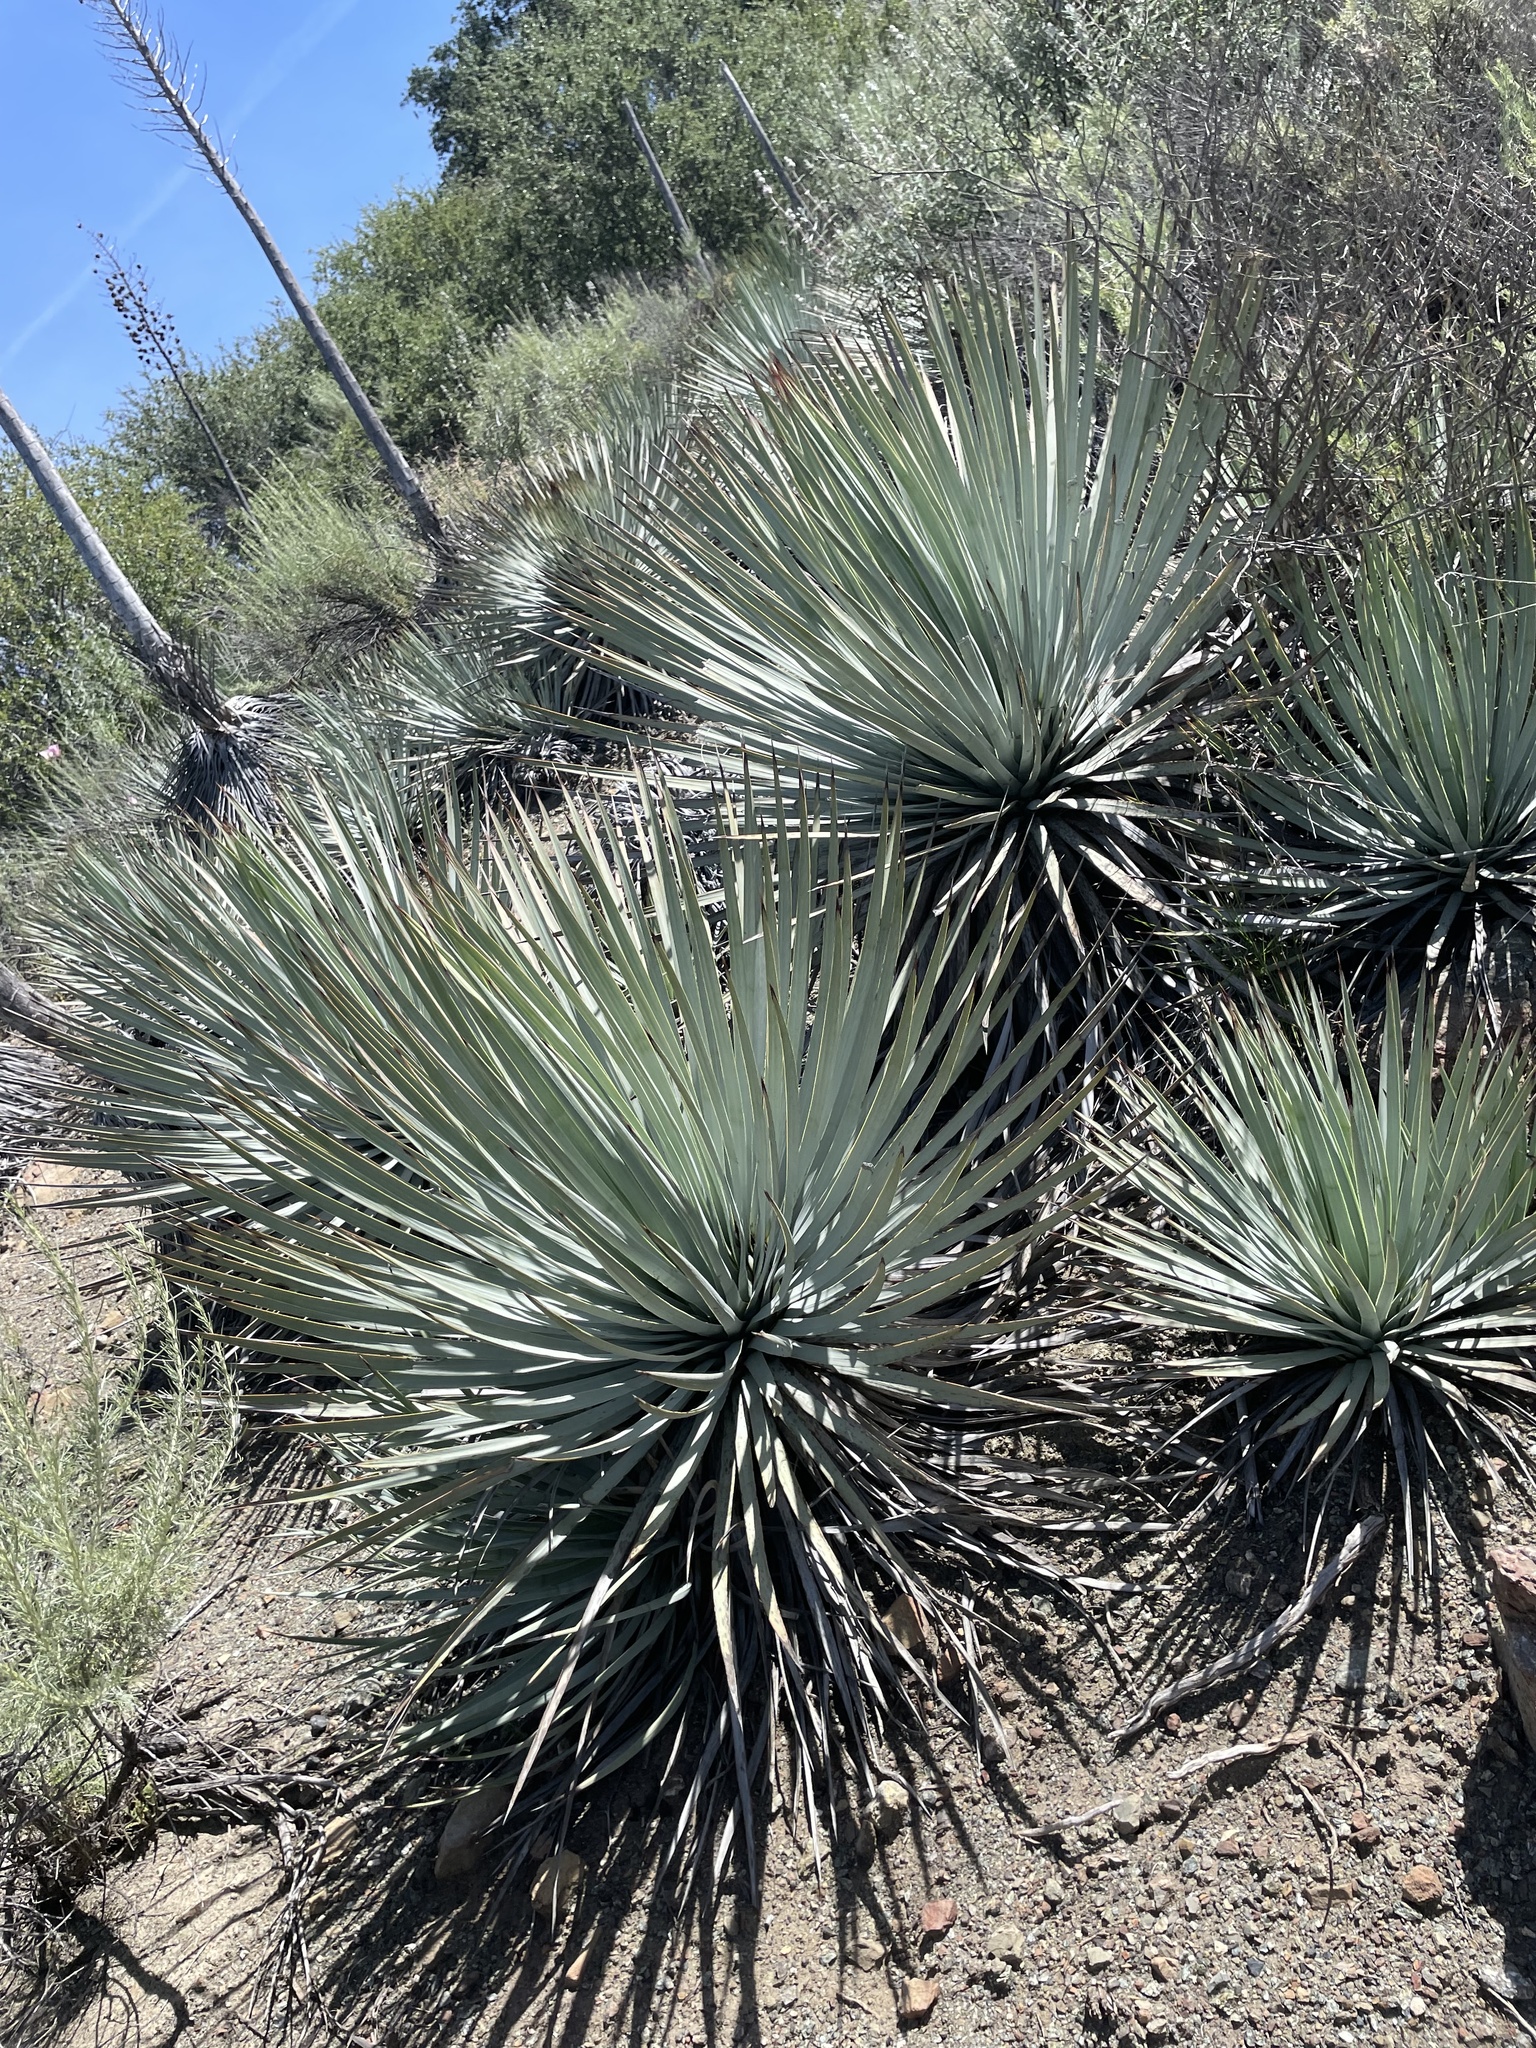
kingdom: Plantae
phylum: Tracheophyta
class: Liliopsida
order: Asparagales
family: Asparagaceae
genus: Hesperoyucca
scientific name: Hesperoyucca whipplei
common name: Our lord's-candle
